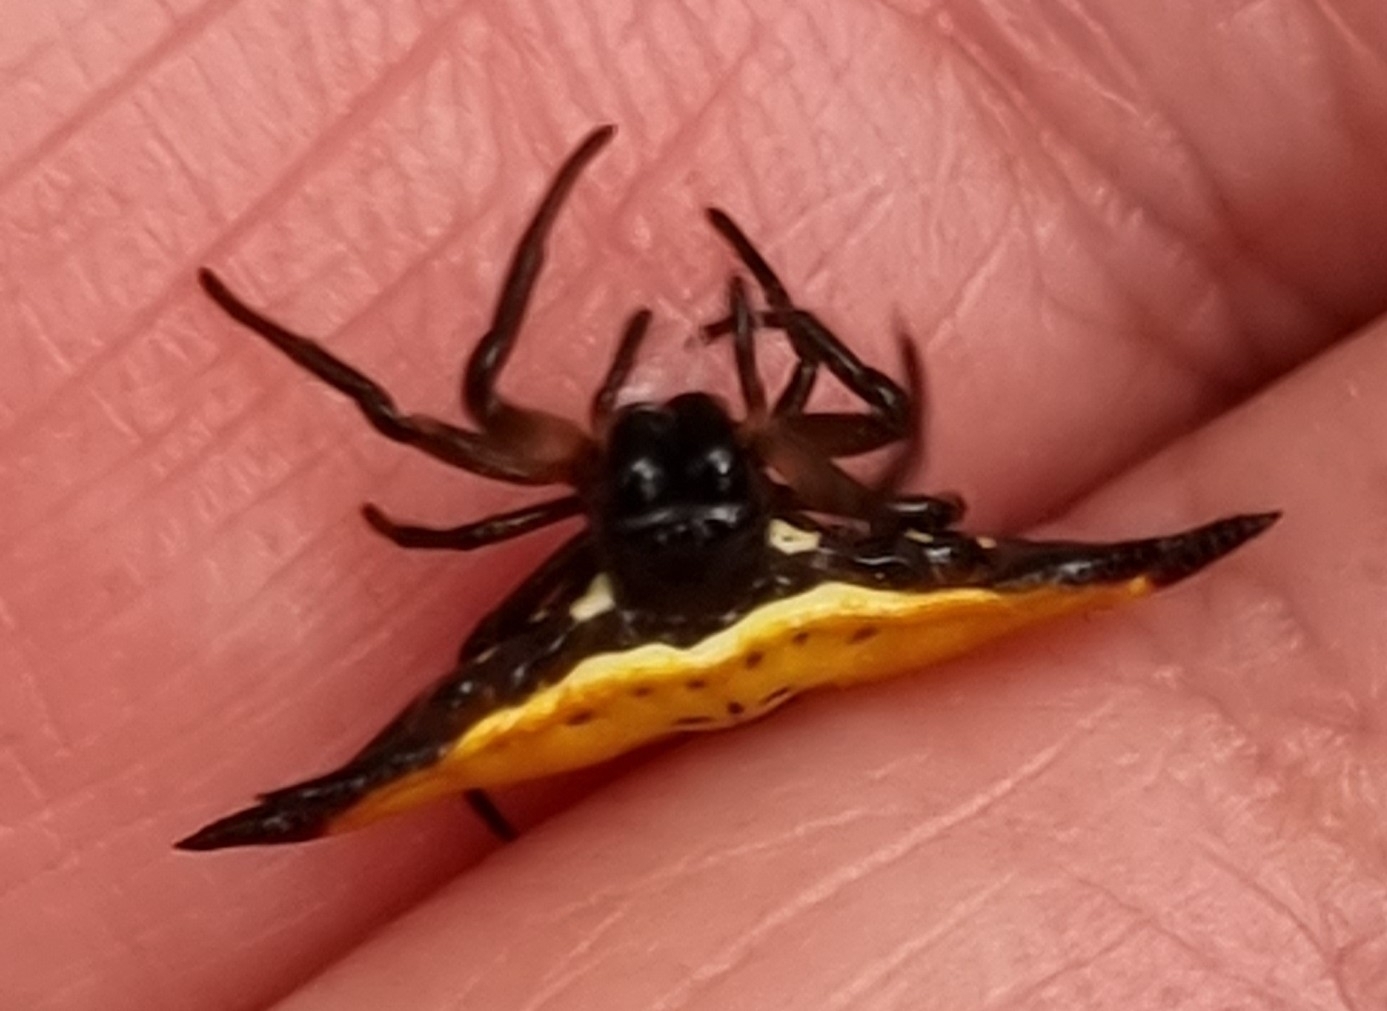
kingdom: Animalia
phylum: Arthropoda
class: Arachnida
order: Araneae
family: Araneidae
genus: Gasteracantha
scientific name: Gasteracantha quadrispinosa
